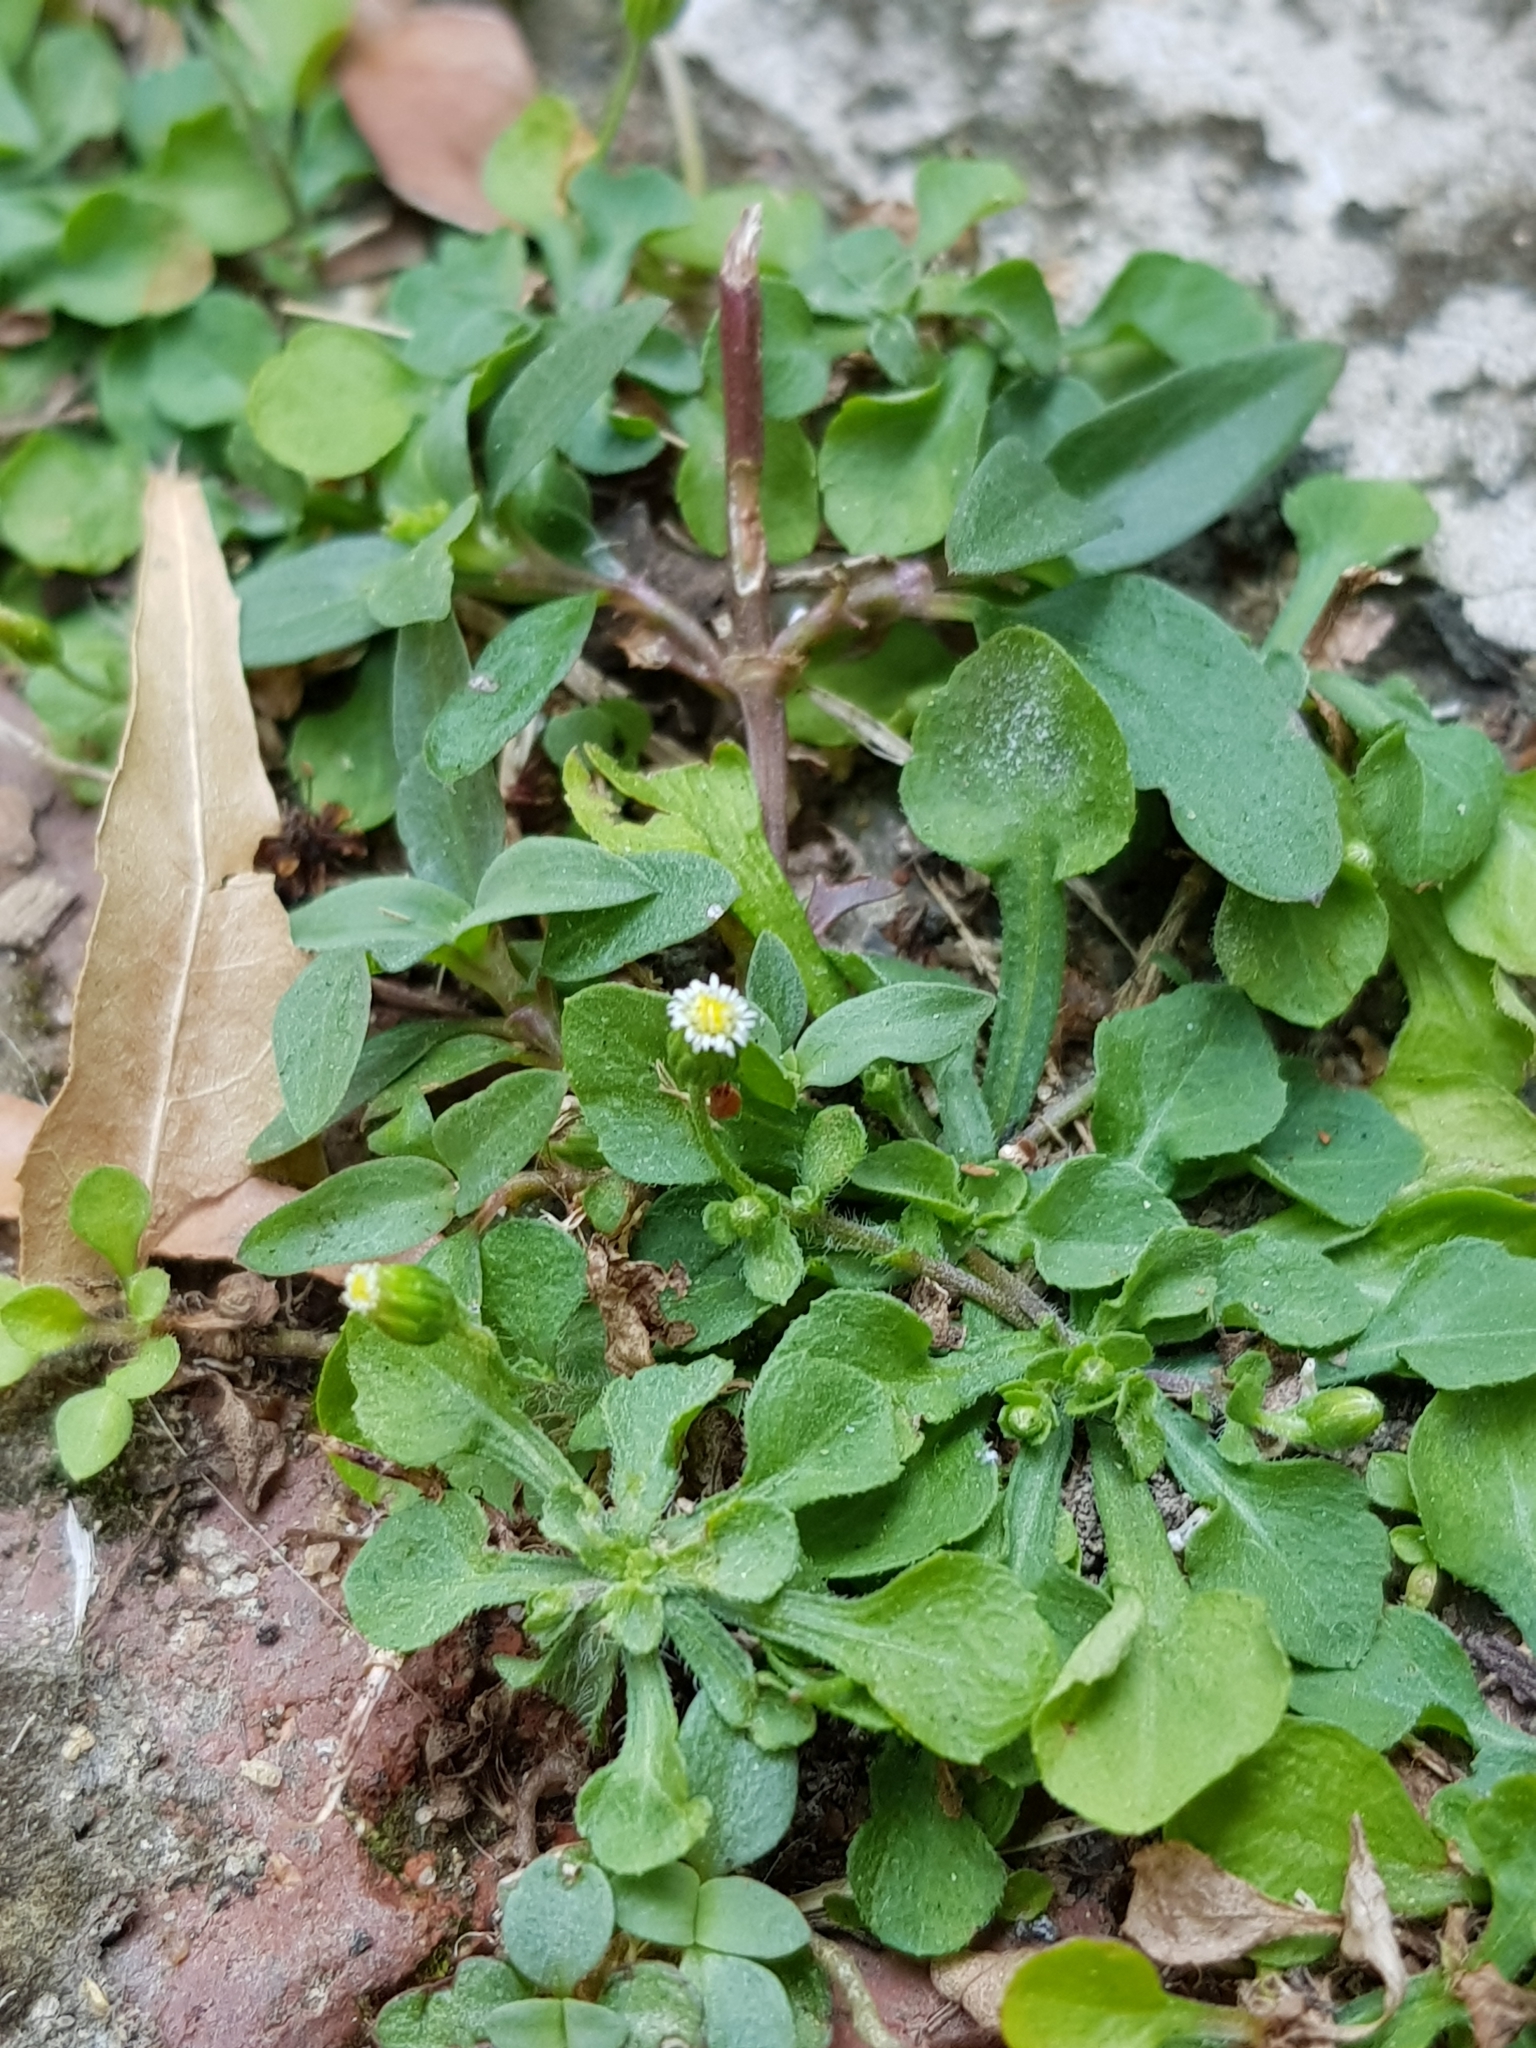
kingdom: Plantae
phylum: Tracheophyta
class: Magnoliopsida
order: Asterales
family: Asteraceae
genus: Erigeron
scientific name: Erigeron bellioides
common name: Bellorita
